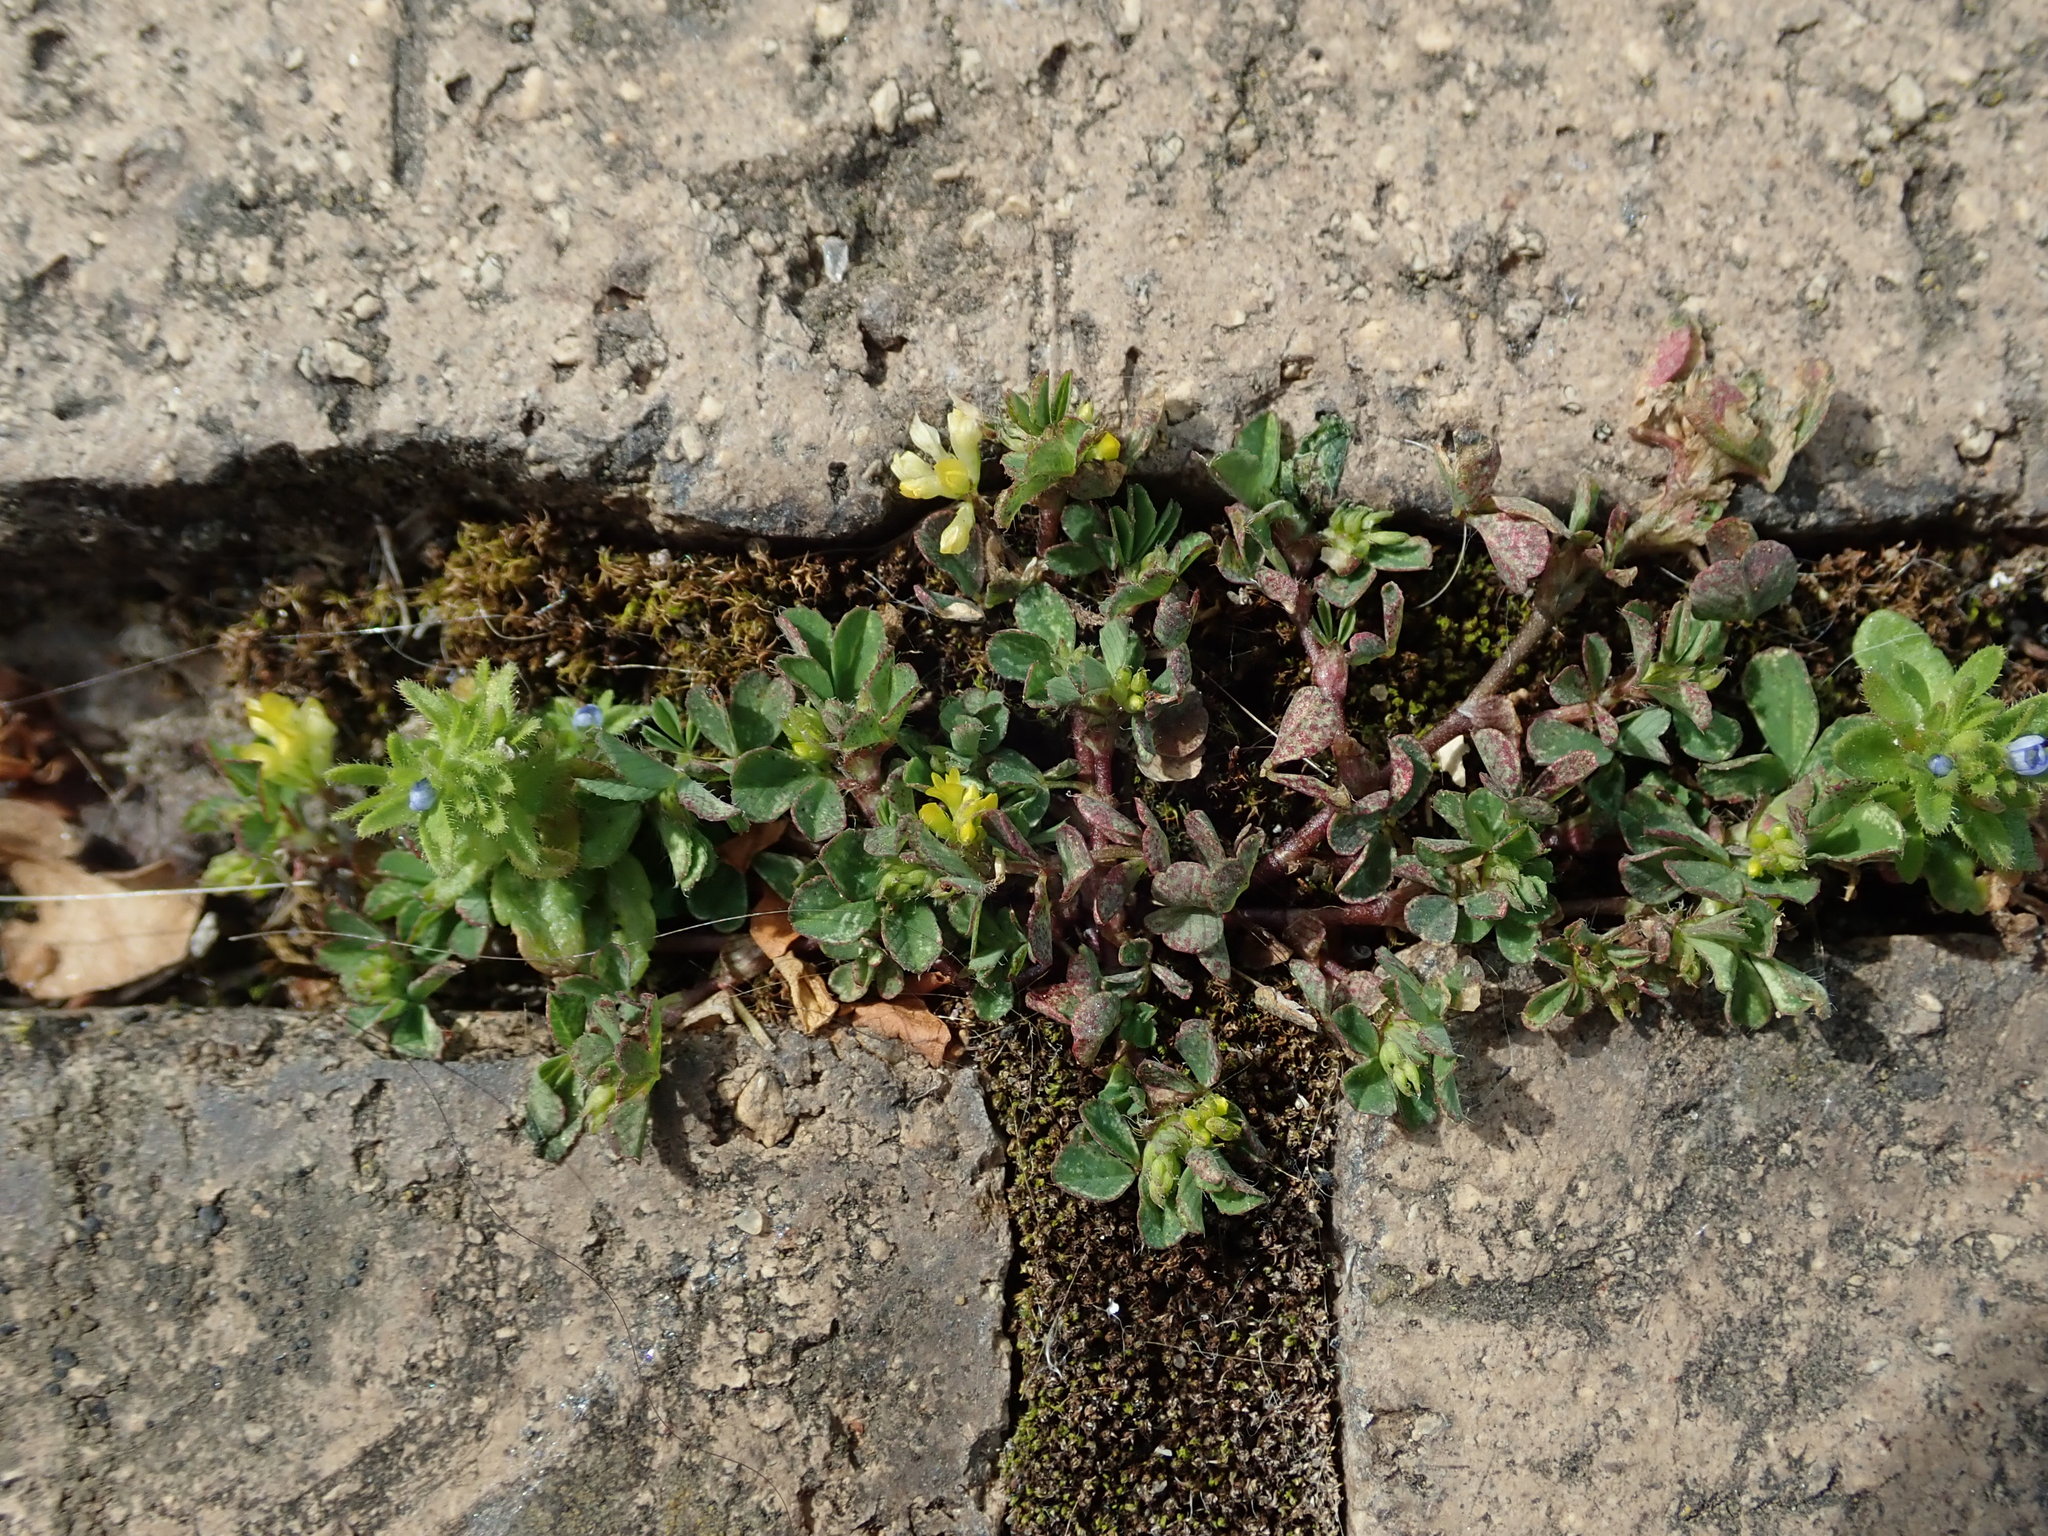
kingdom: Plantae
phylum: Tracheophyta
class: Magnoliopsida
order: Fabales
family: Fabaceae
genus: Trifolium
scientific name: Trifolium dubium
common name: Suckling clover
